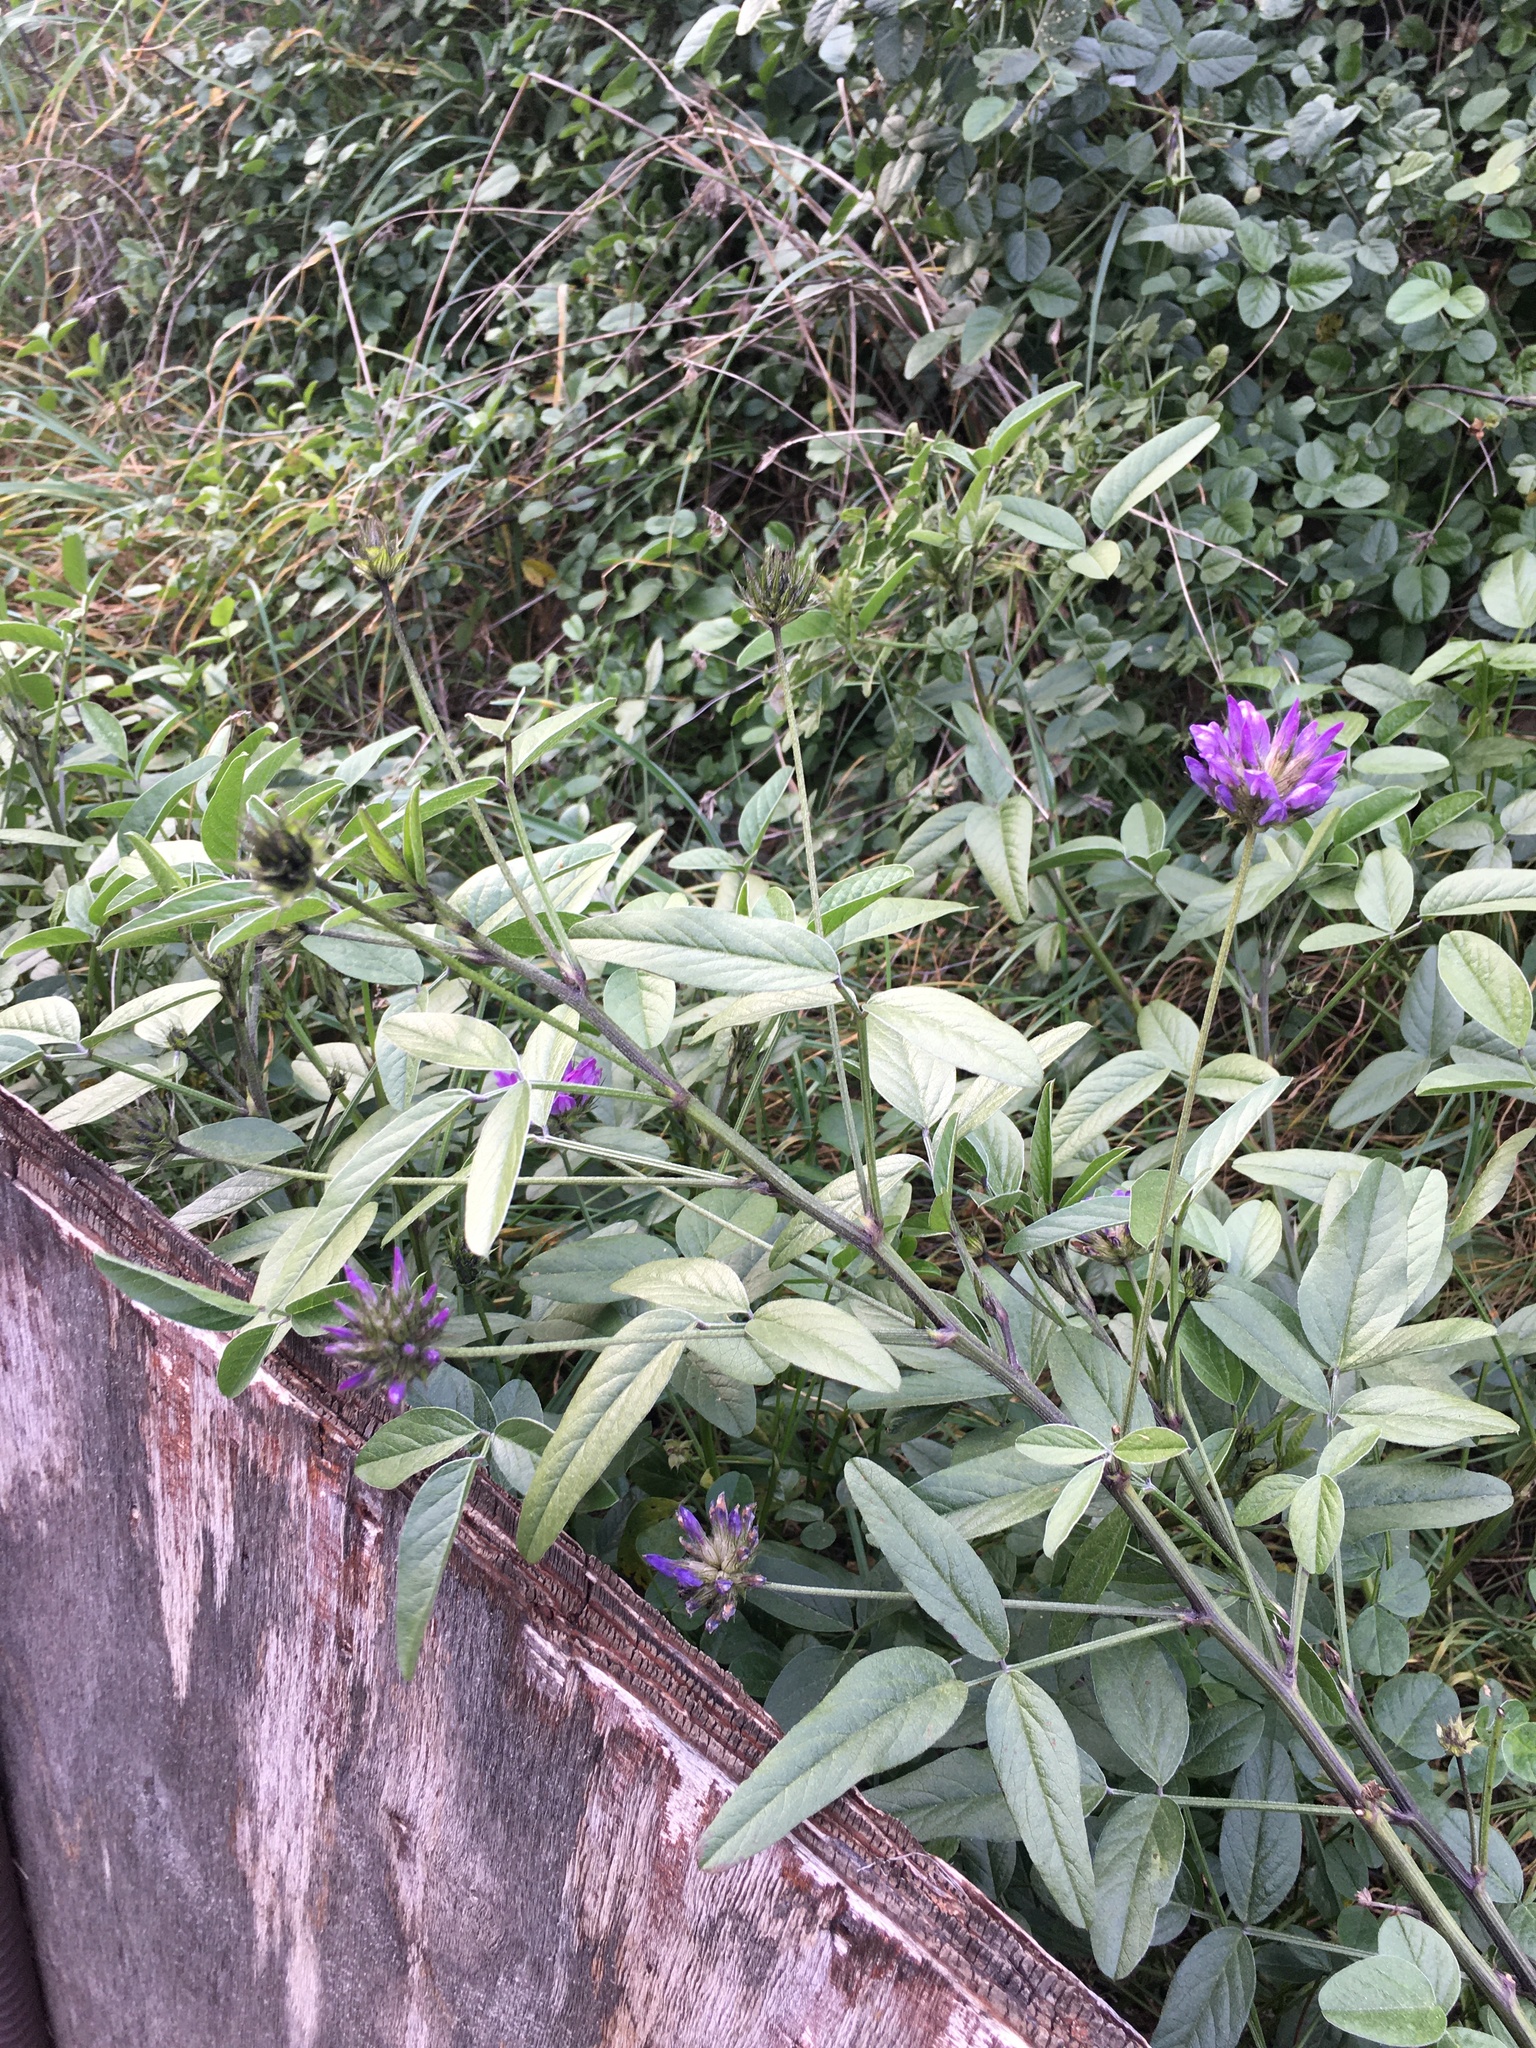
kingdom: Plantae
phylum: Tracheophyta
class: Magnoliopsida
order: Fabales
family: Fabaceae
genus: Bituminaria
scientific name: Bituminaria bituminosa
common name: Arabian pea
